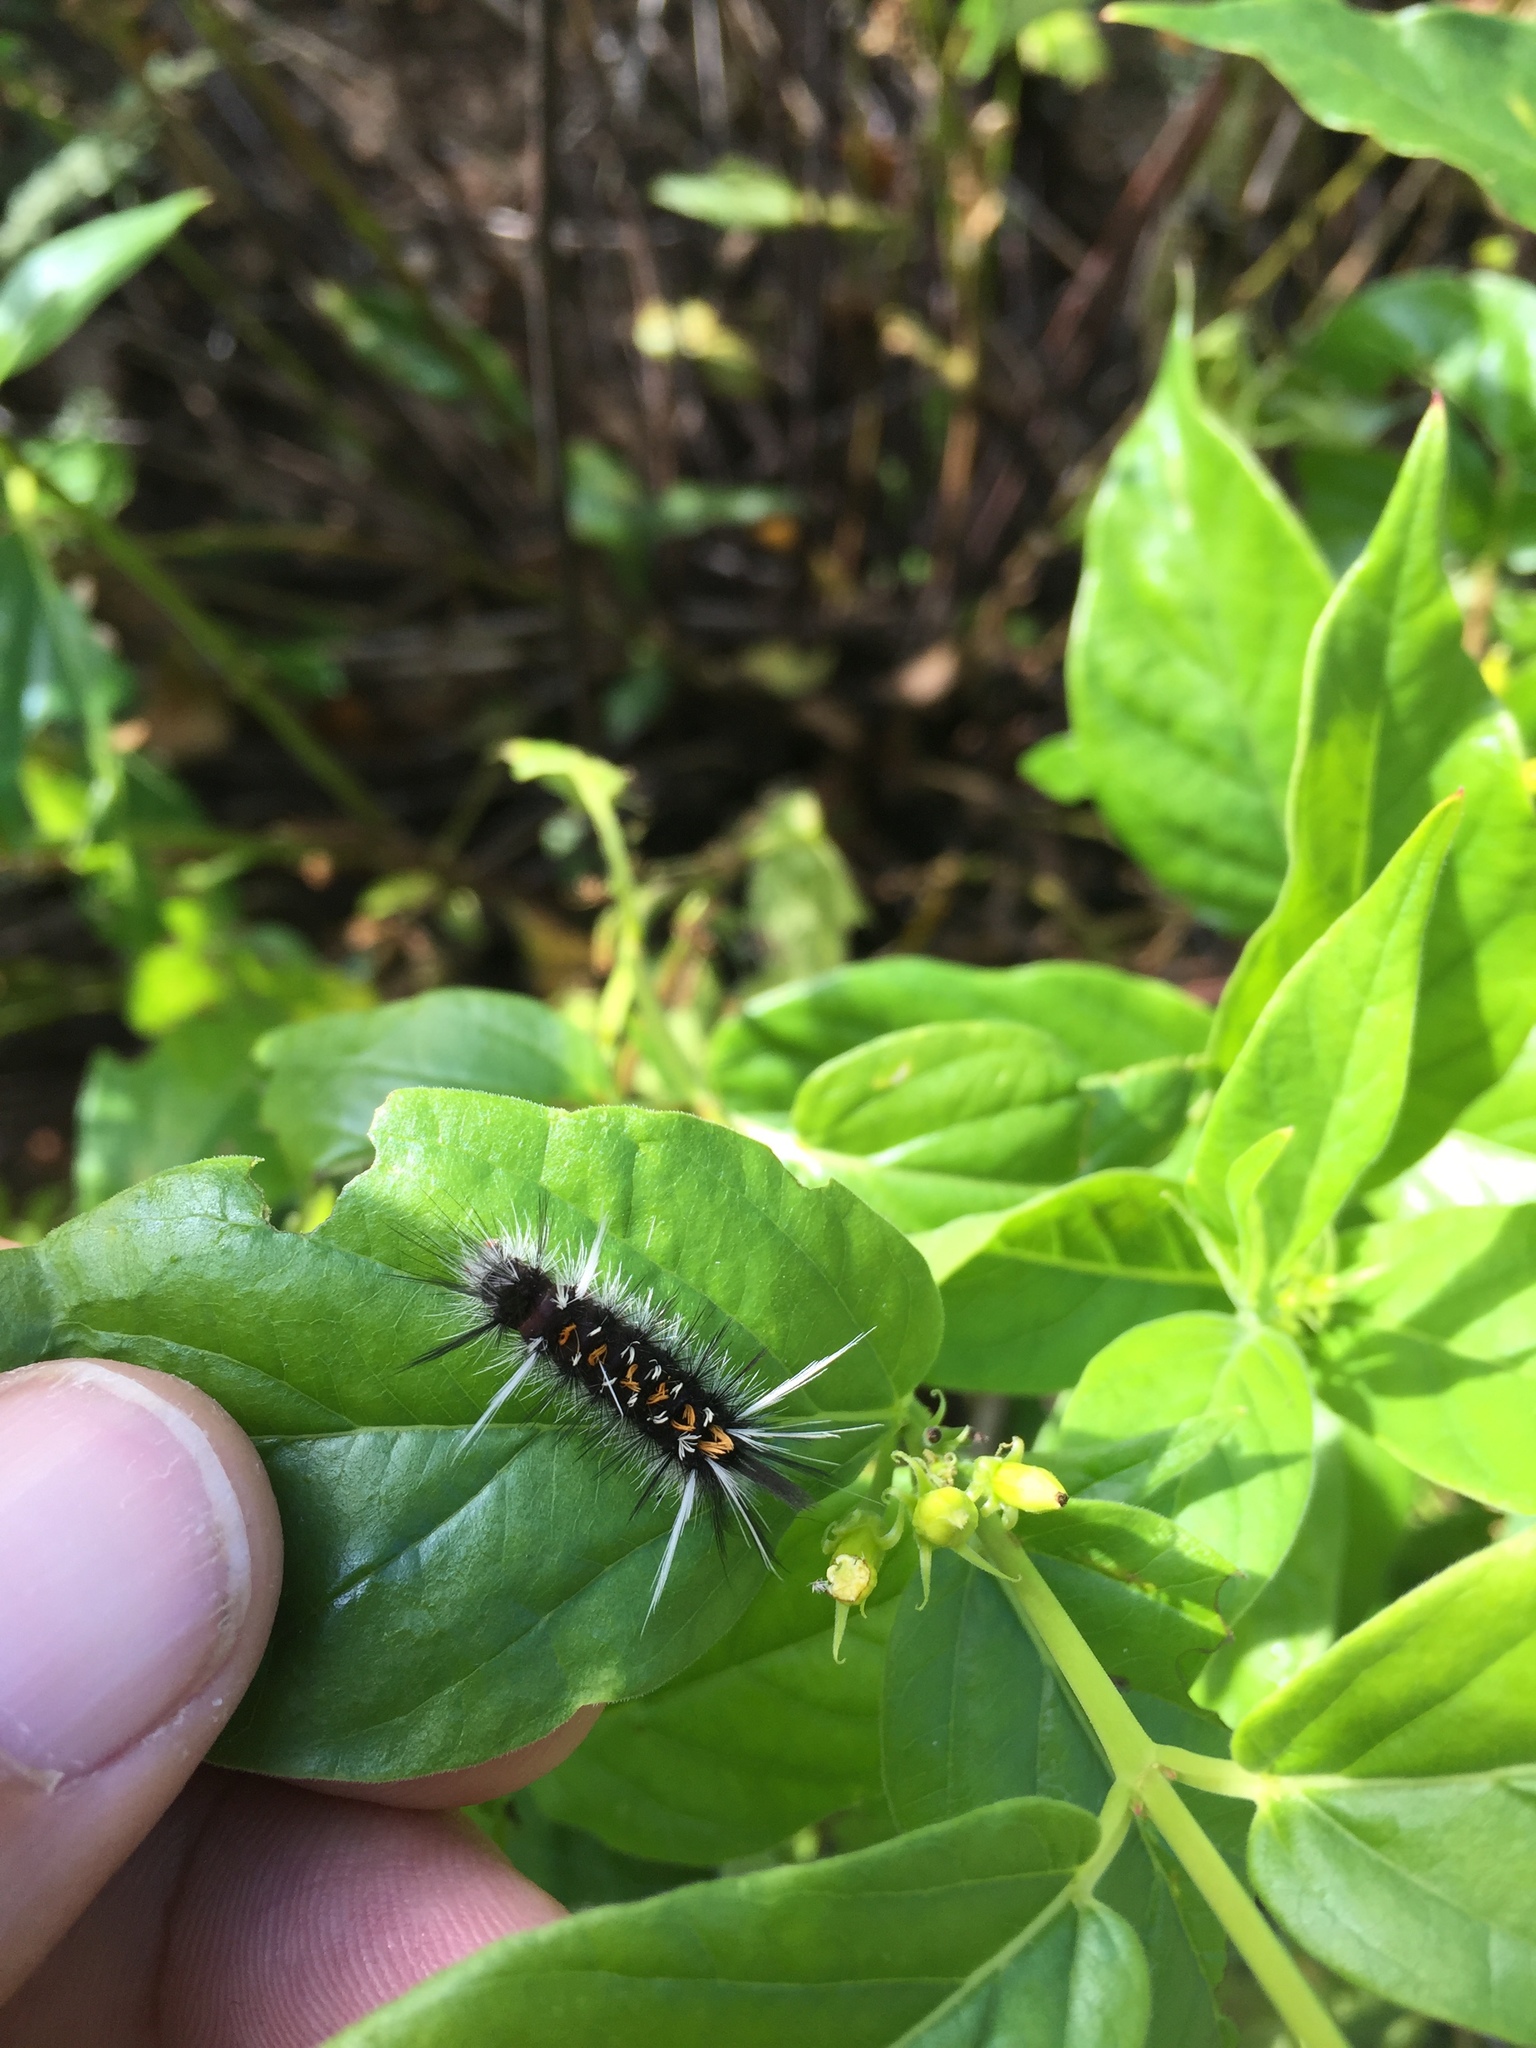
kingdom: Animalia
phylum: Arthropoda
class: Insecta
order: Lepidoptera
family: Erebidae
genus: Euchaetes
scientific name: Euchaetes
